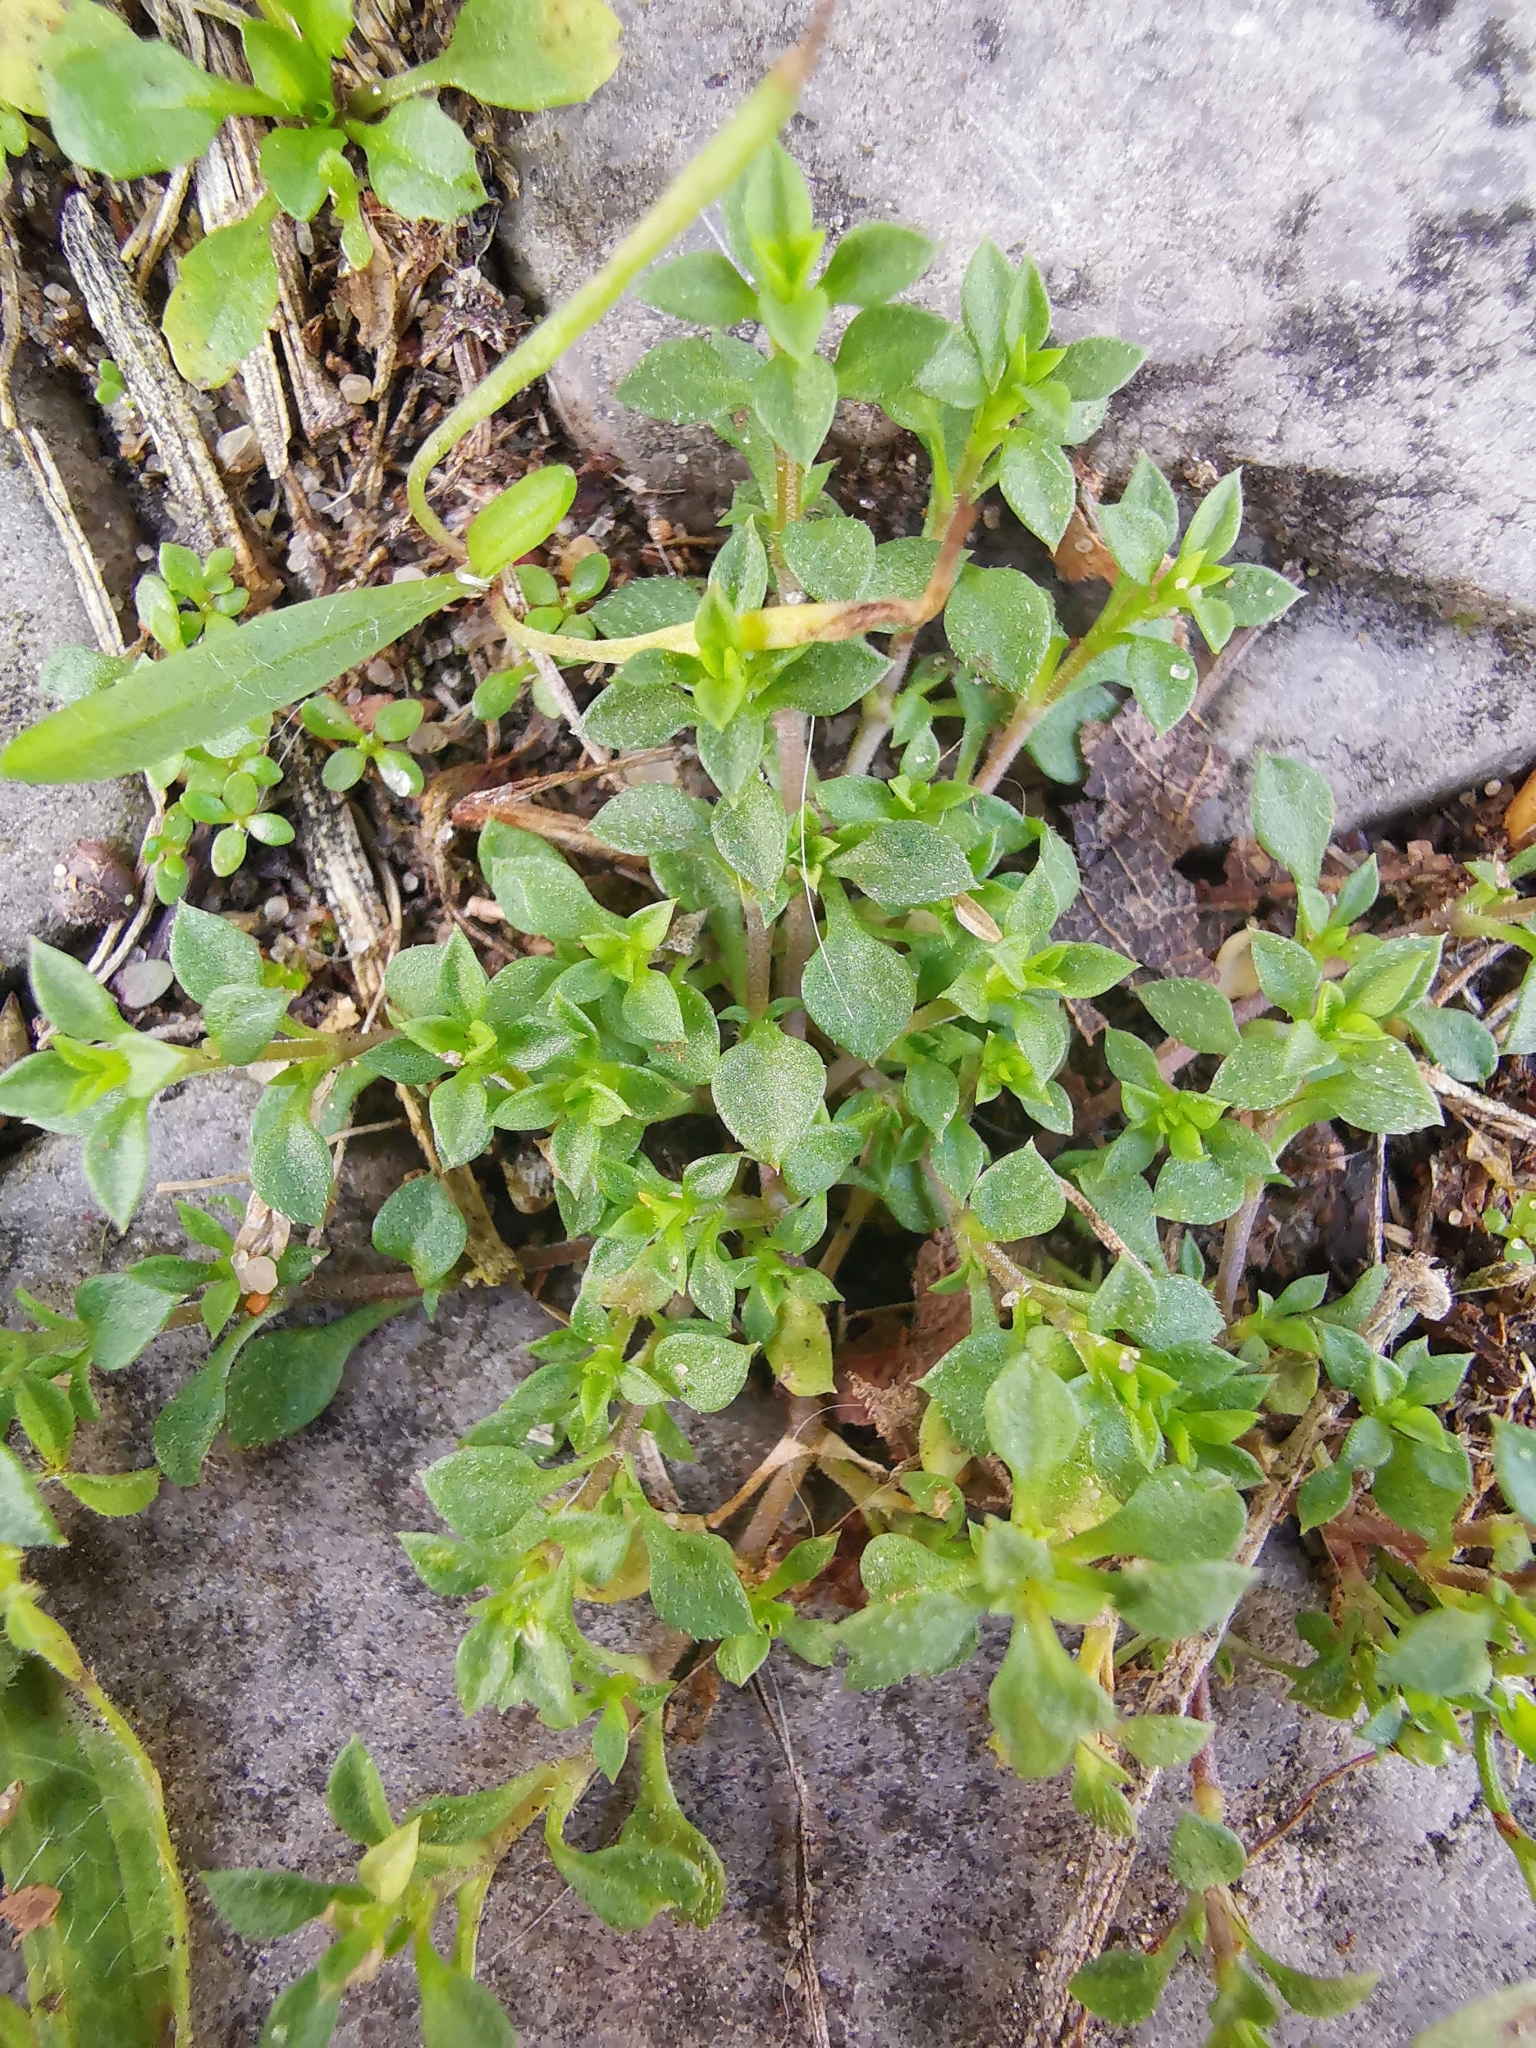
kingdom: Plantae
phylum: Tracheophyta
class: Magnoliopsida
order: Caryophyllales
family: Caryophyllaceae
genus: Arenaria
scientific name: Arenaria serpyllifolia
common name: Thyme-leaved sandwort
